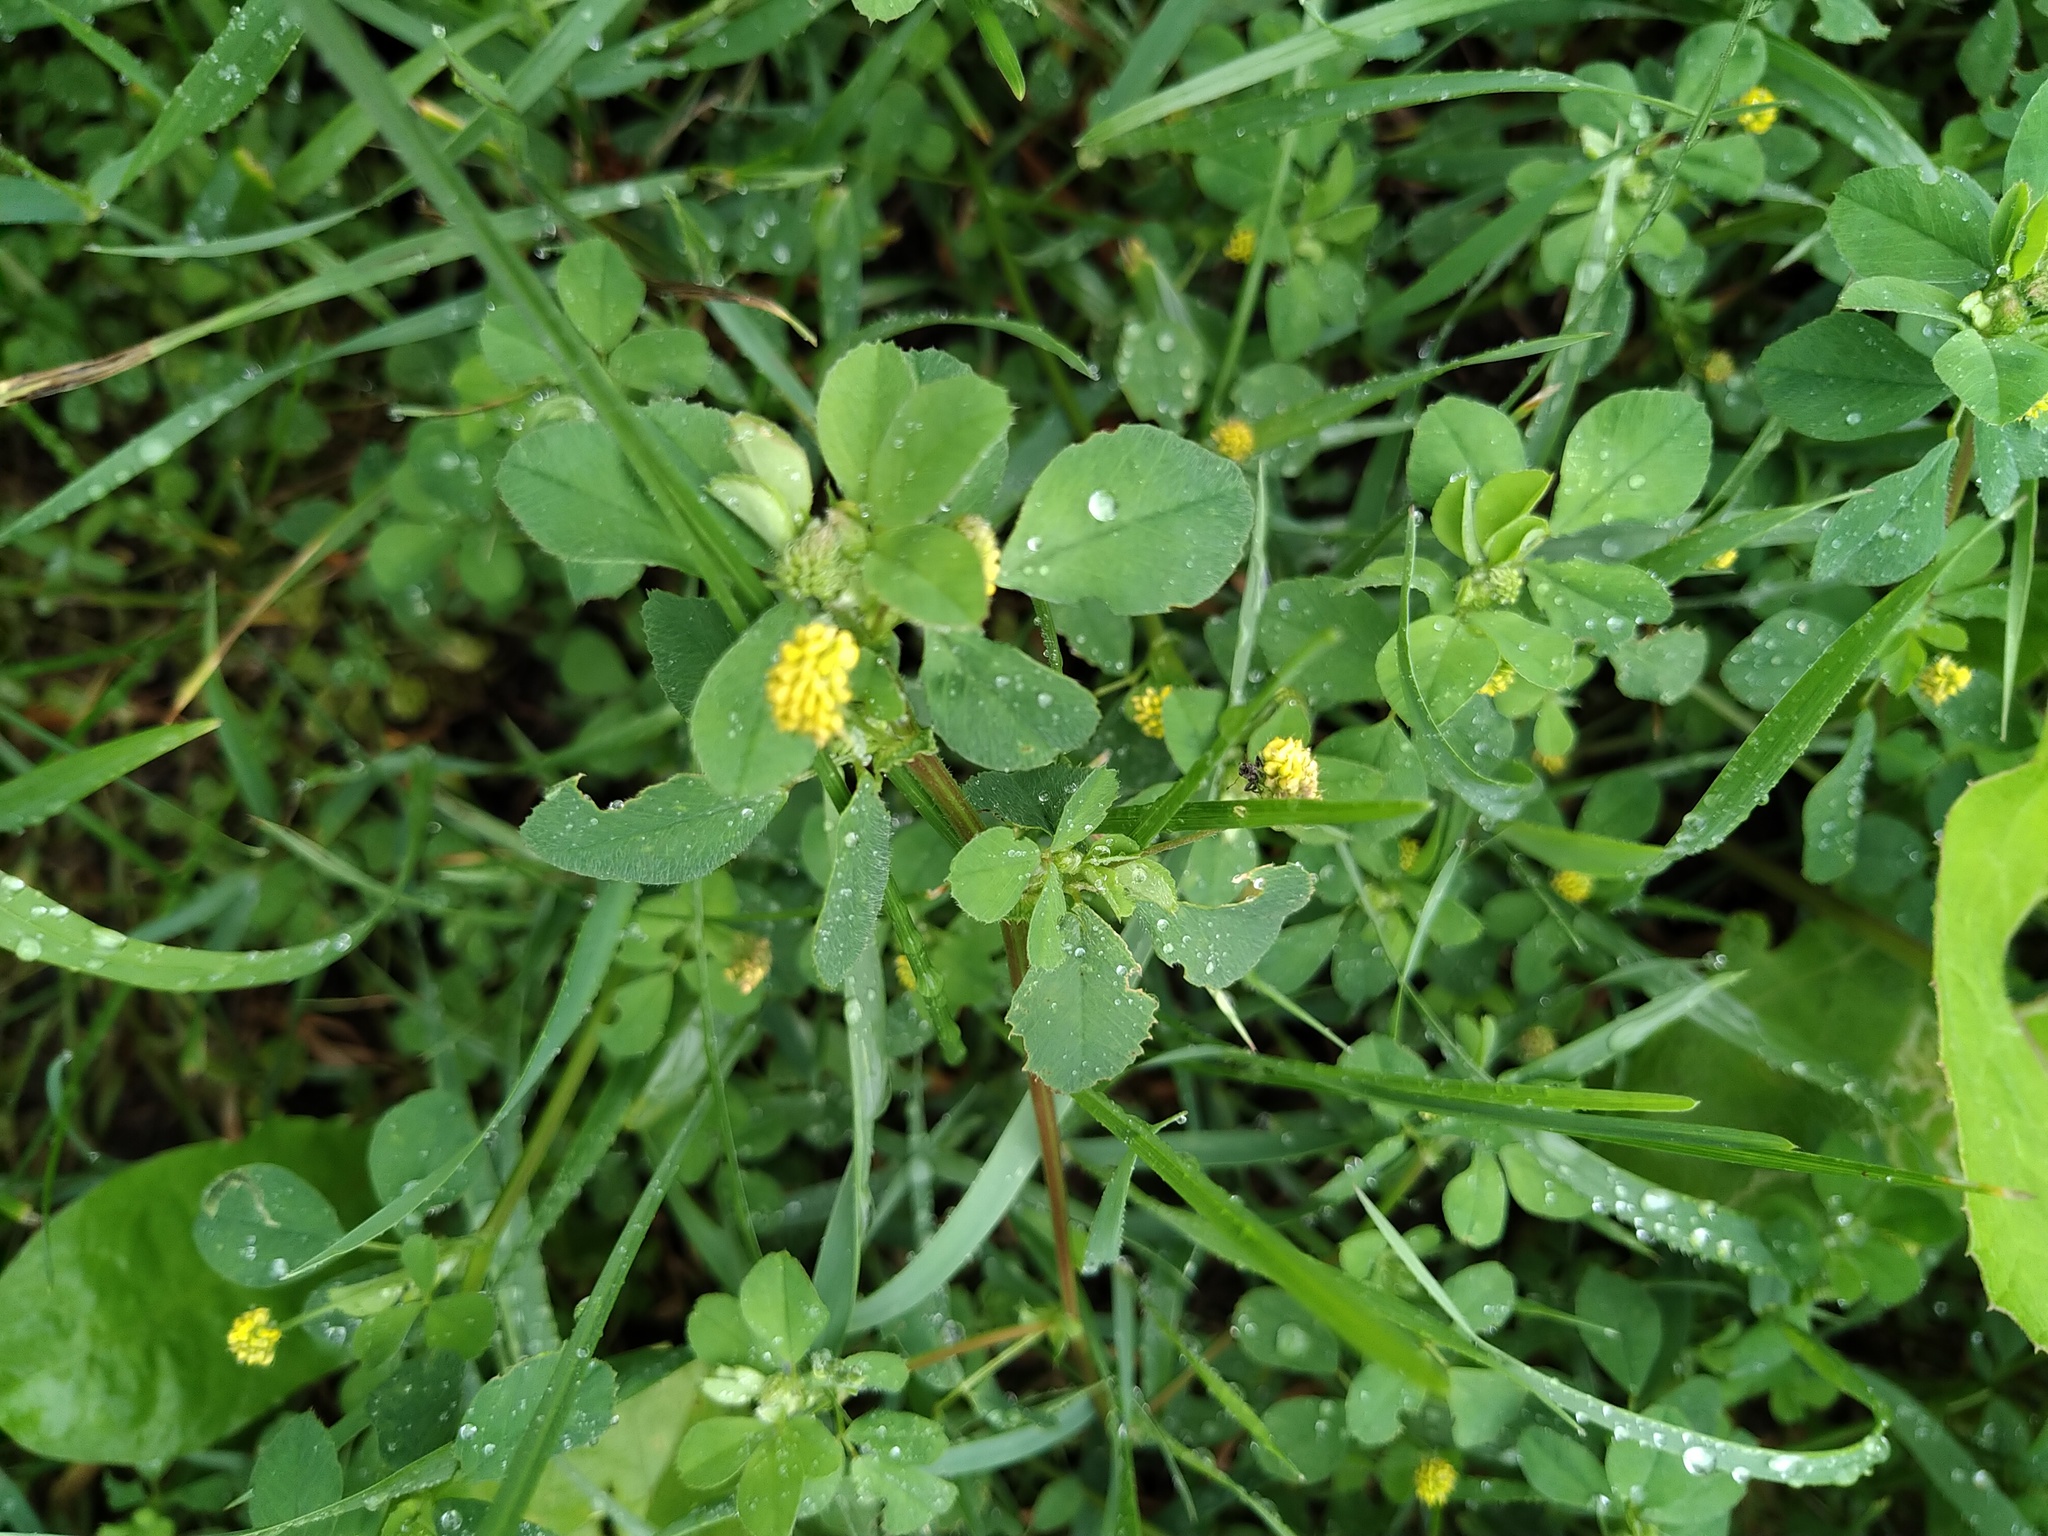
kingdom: Plantae
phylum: Tracheophyta
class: Magnoliopsida
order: Fabales
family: Fabaceae
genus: Medicago
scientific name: Medicago lupulina
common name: Black medick
